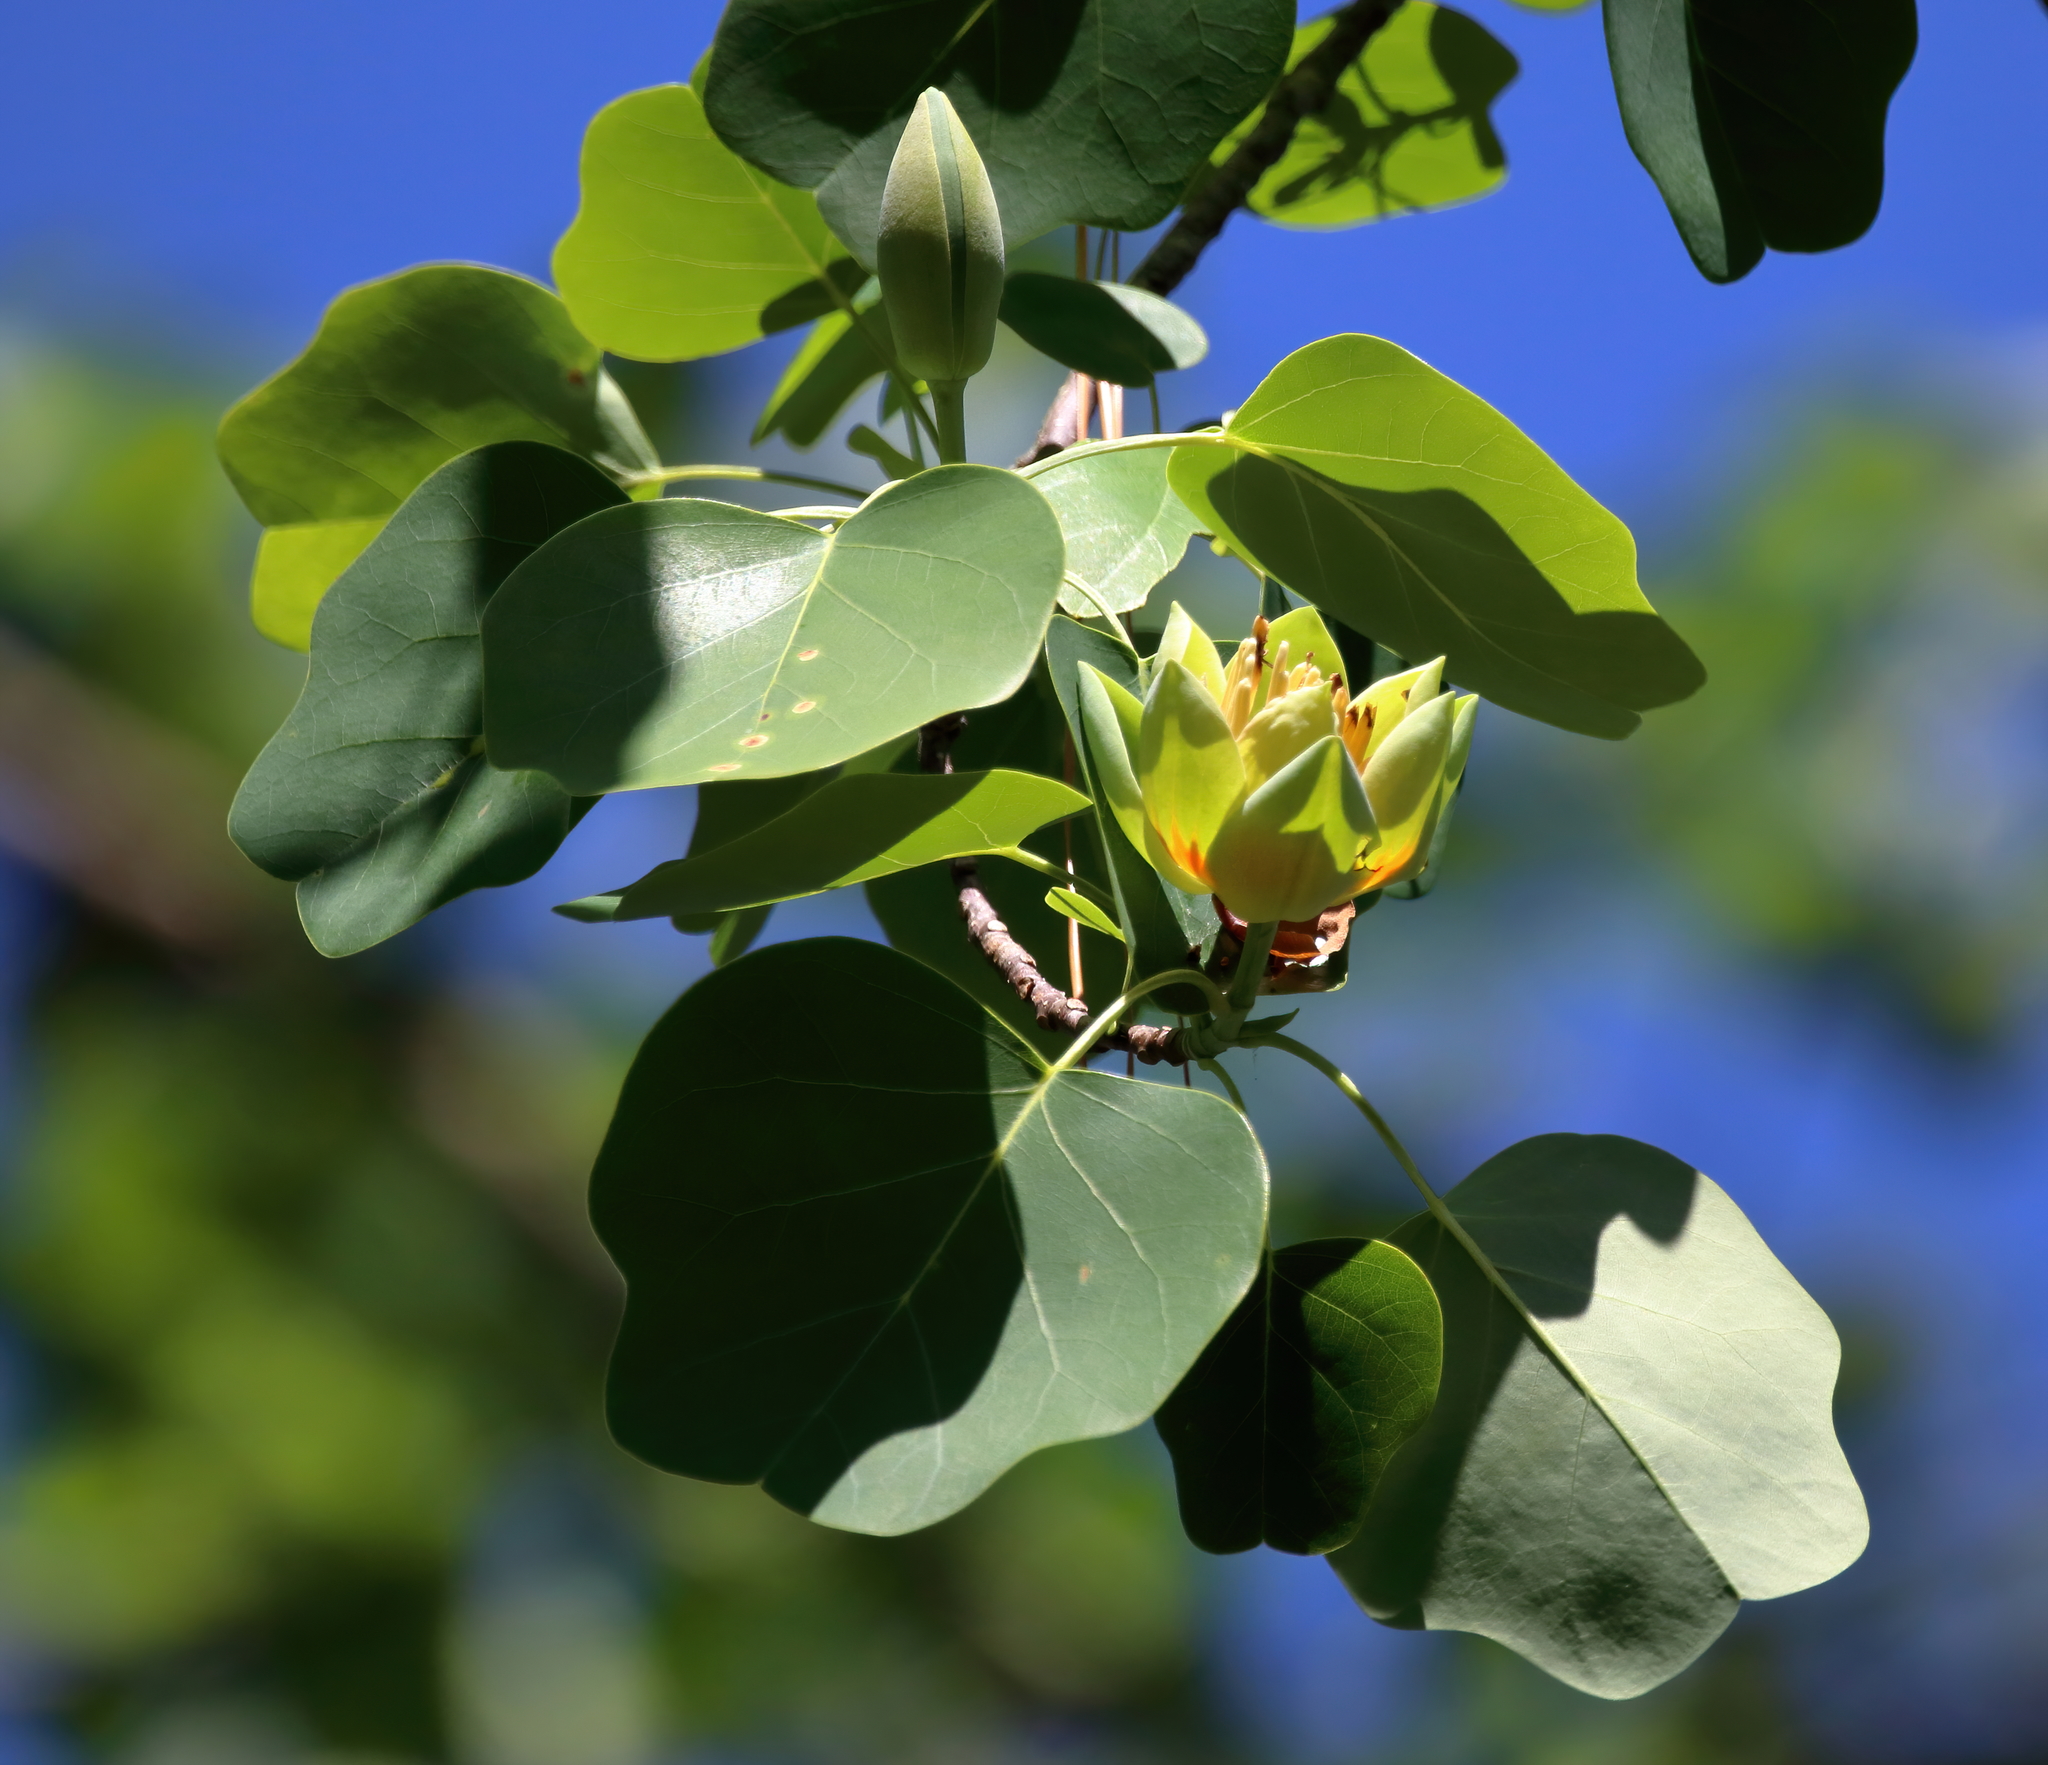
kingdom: Plantae
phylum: Tracheophyta
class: Magnoliopsida
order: Magnoliales
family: Magnoliaceae
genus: Liriodendron
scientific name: Liriodendron tulipifera
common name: Tulip tree
